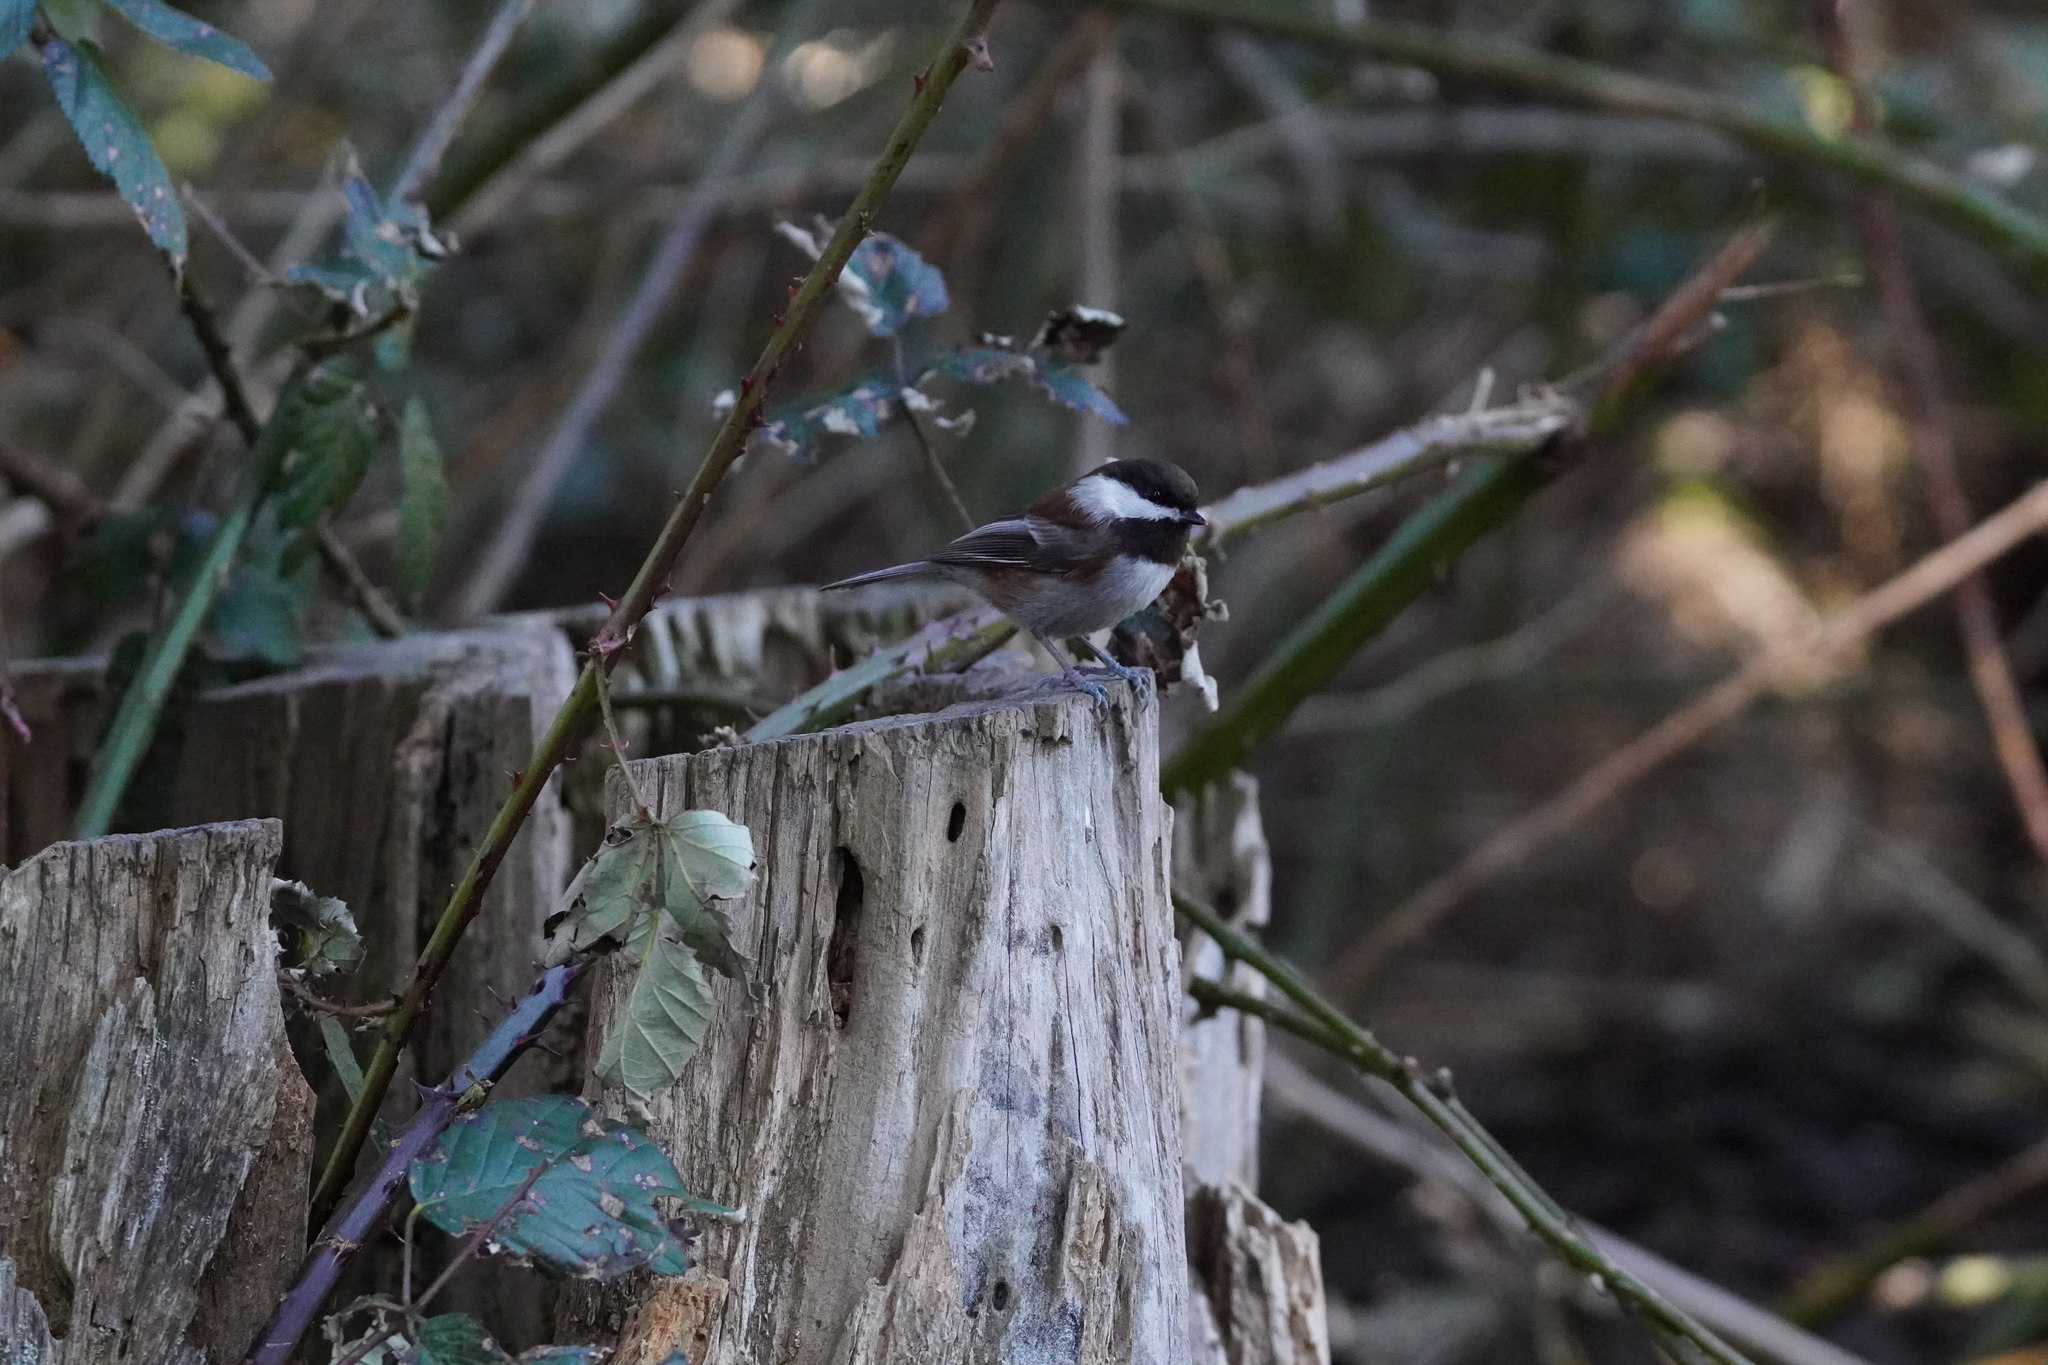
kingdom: Animalia
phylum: Chordata
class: Aves
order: Passeriformes
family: Paridae
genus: Poecile
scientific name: Poecile rufescens
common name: Chestnut-backed chickadee
